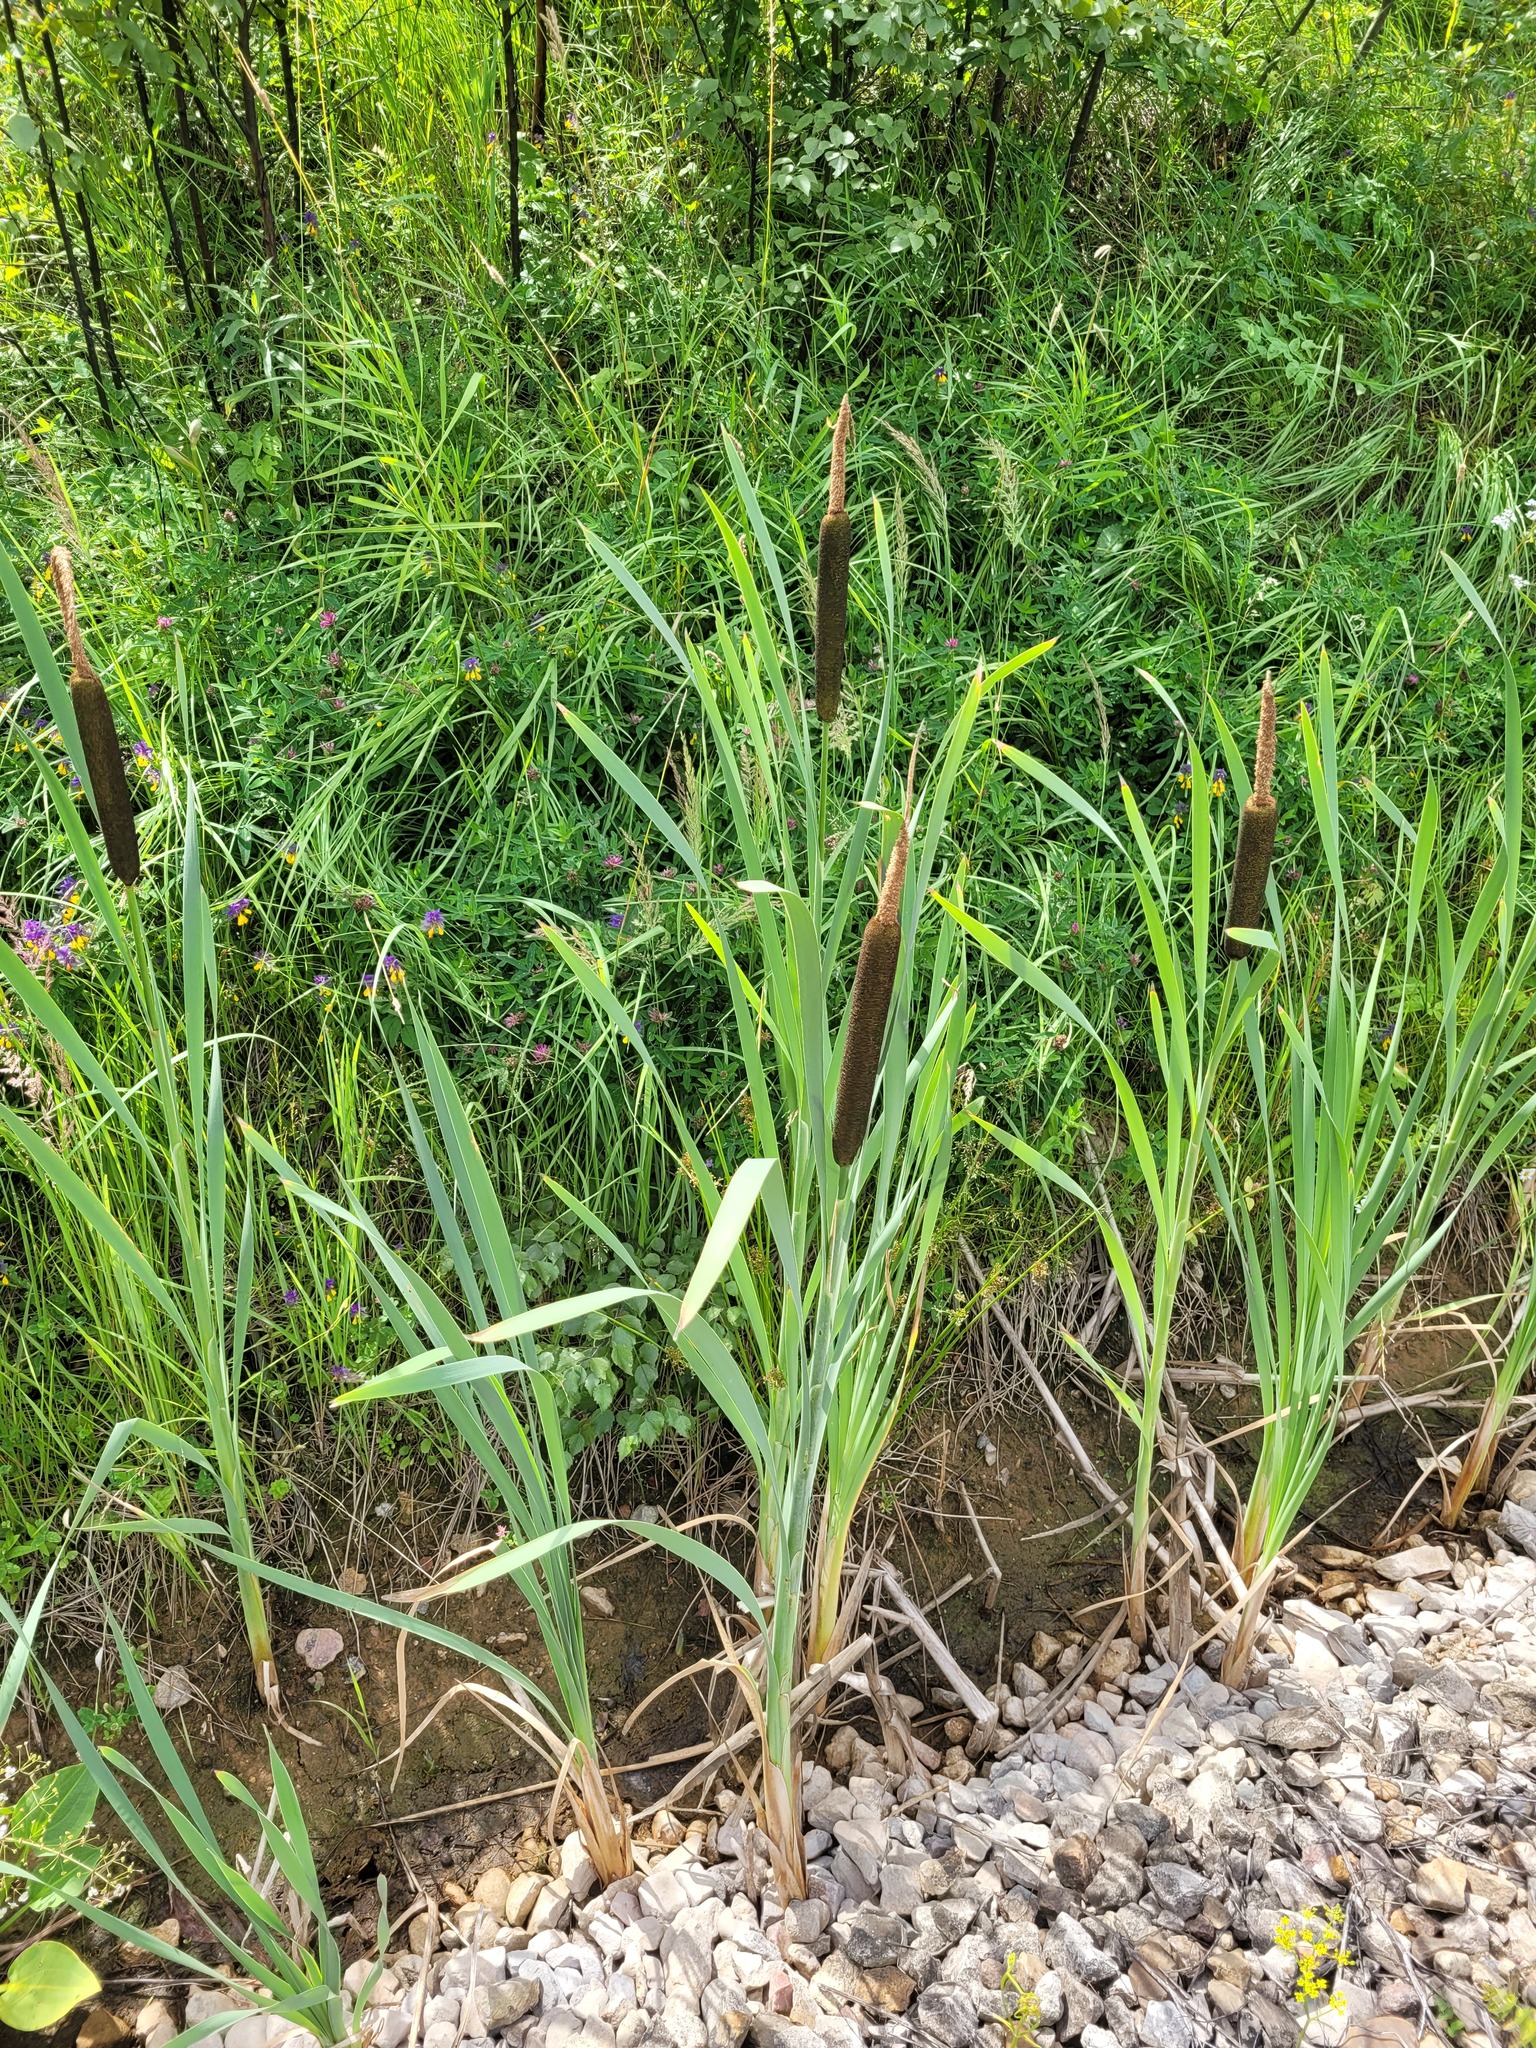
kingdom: Plantae
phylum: Tracheophyta
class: Liliopsida
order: Poales
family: Typhaceae
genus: Typha
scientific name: Typha latifolia
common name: Broadleaf cattail
